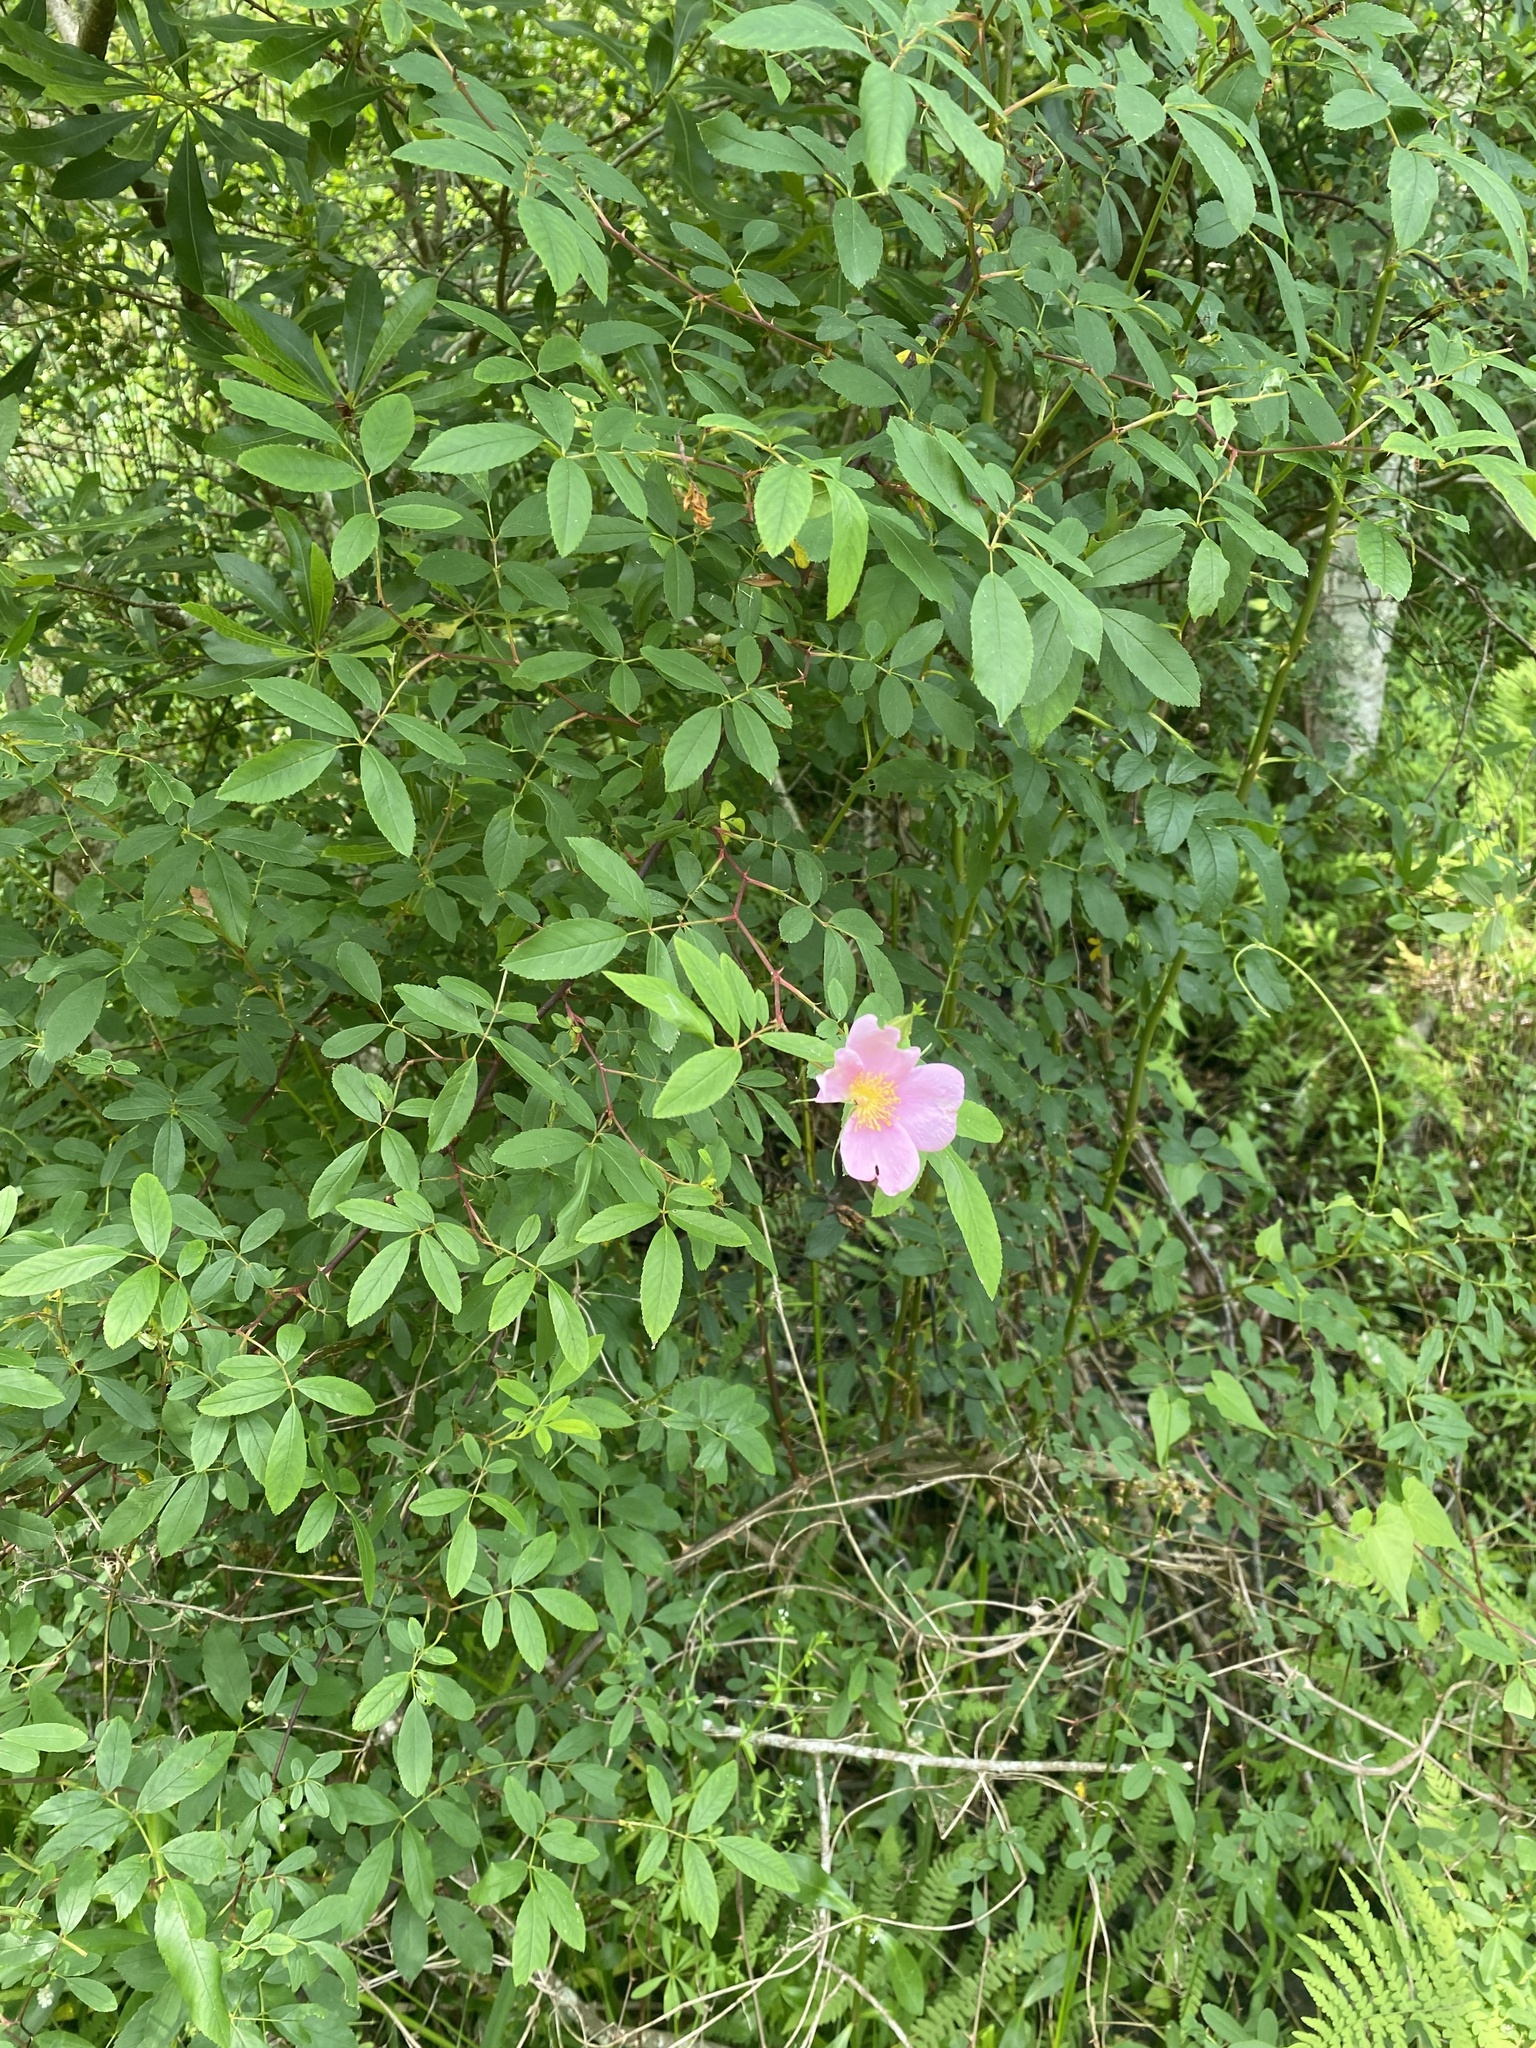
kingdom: Plantae
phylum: Tracheophyta
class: Magnoliopsida
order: Rosales
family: Rosaceae
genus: Rosa
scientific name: Rosa carolina
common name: Pasture rose
